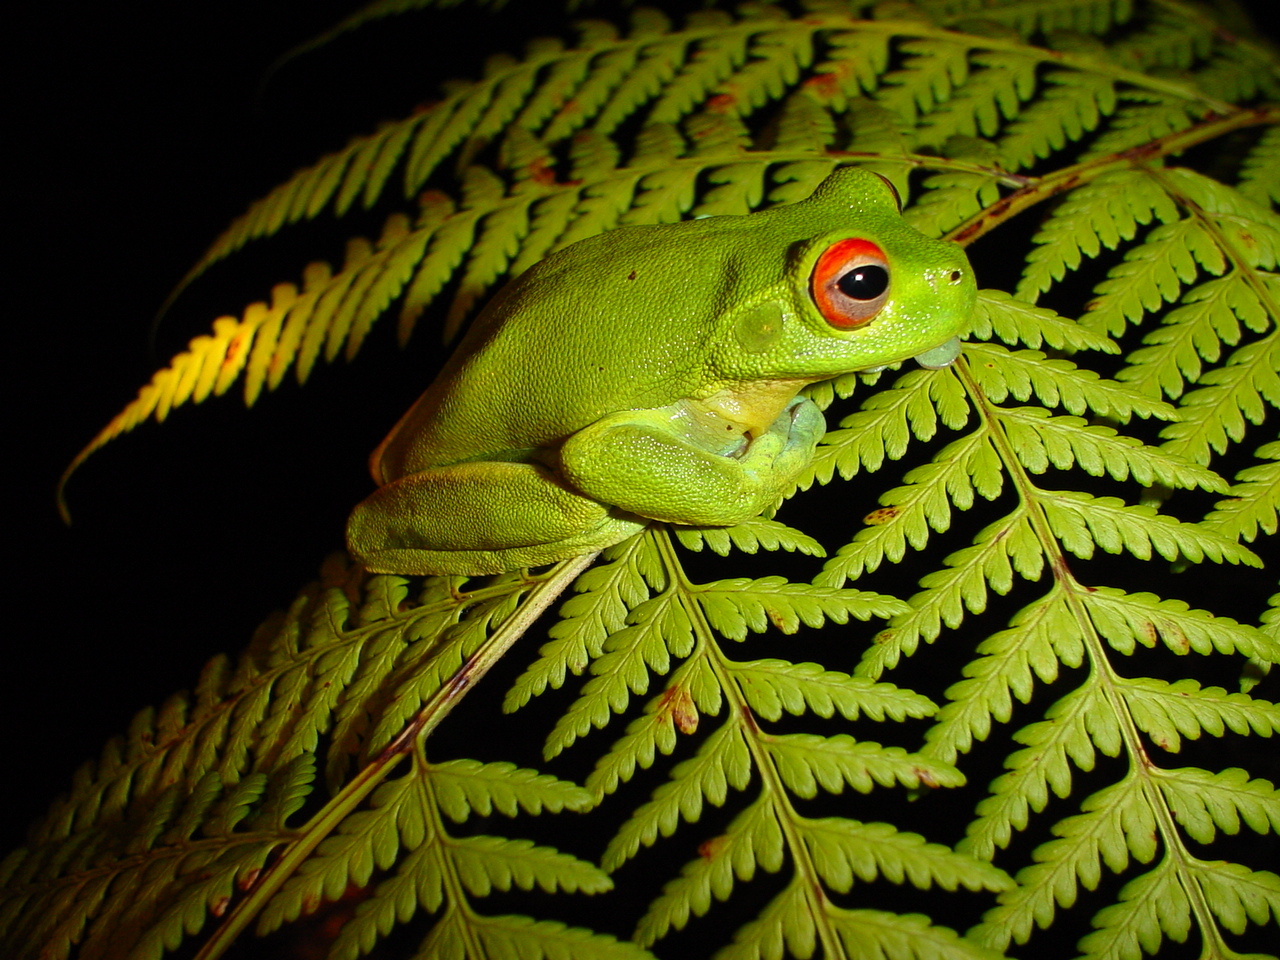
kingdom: Animalia
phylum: Chordata
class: Amphibia
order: Anura
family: Pelodryadidae
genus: Ranoidea
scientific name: Ranoidea chloris
